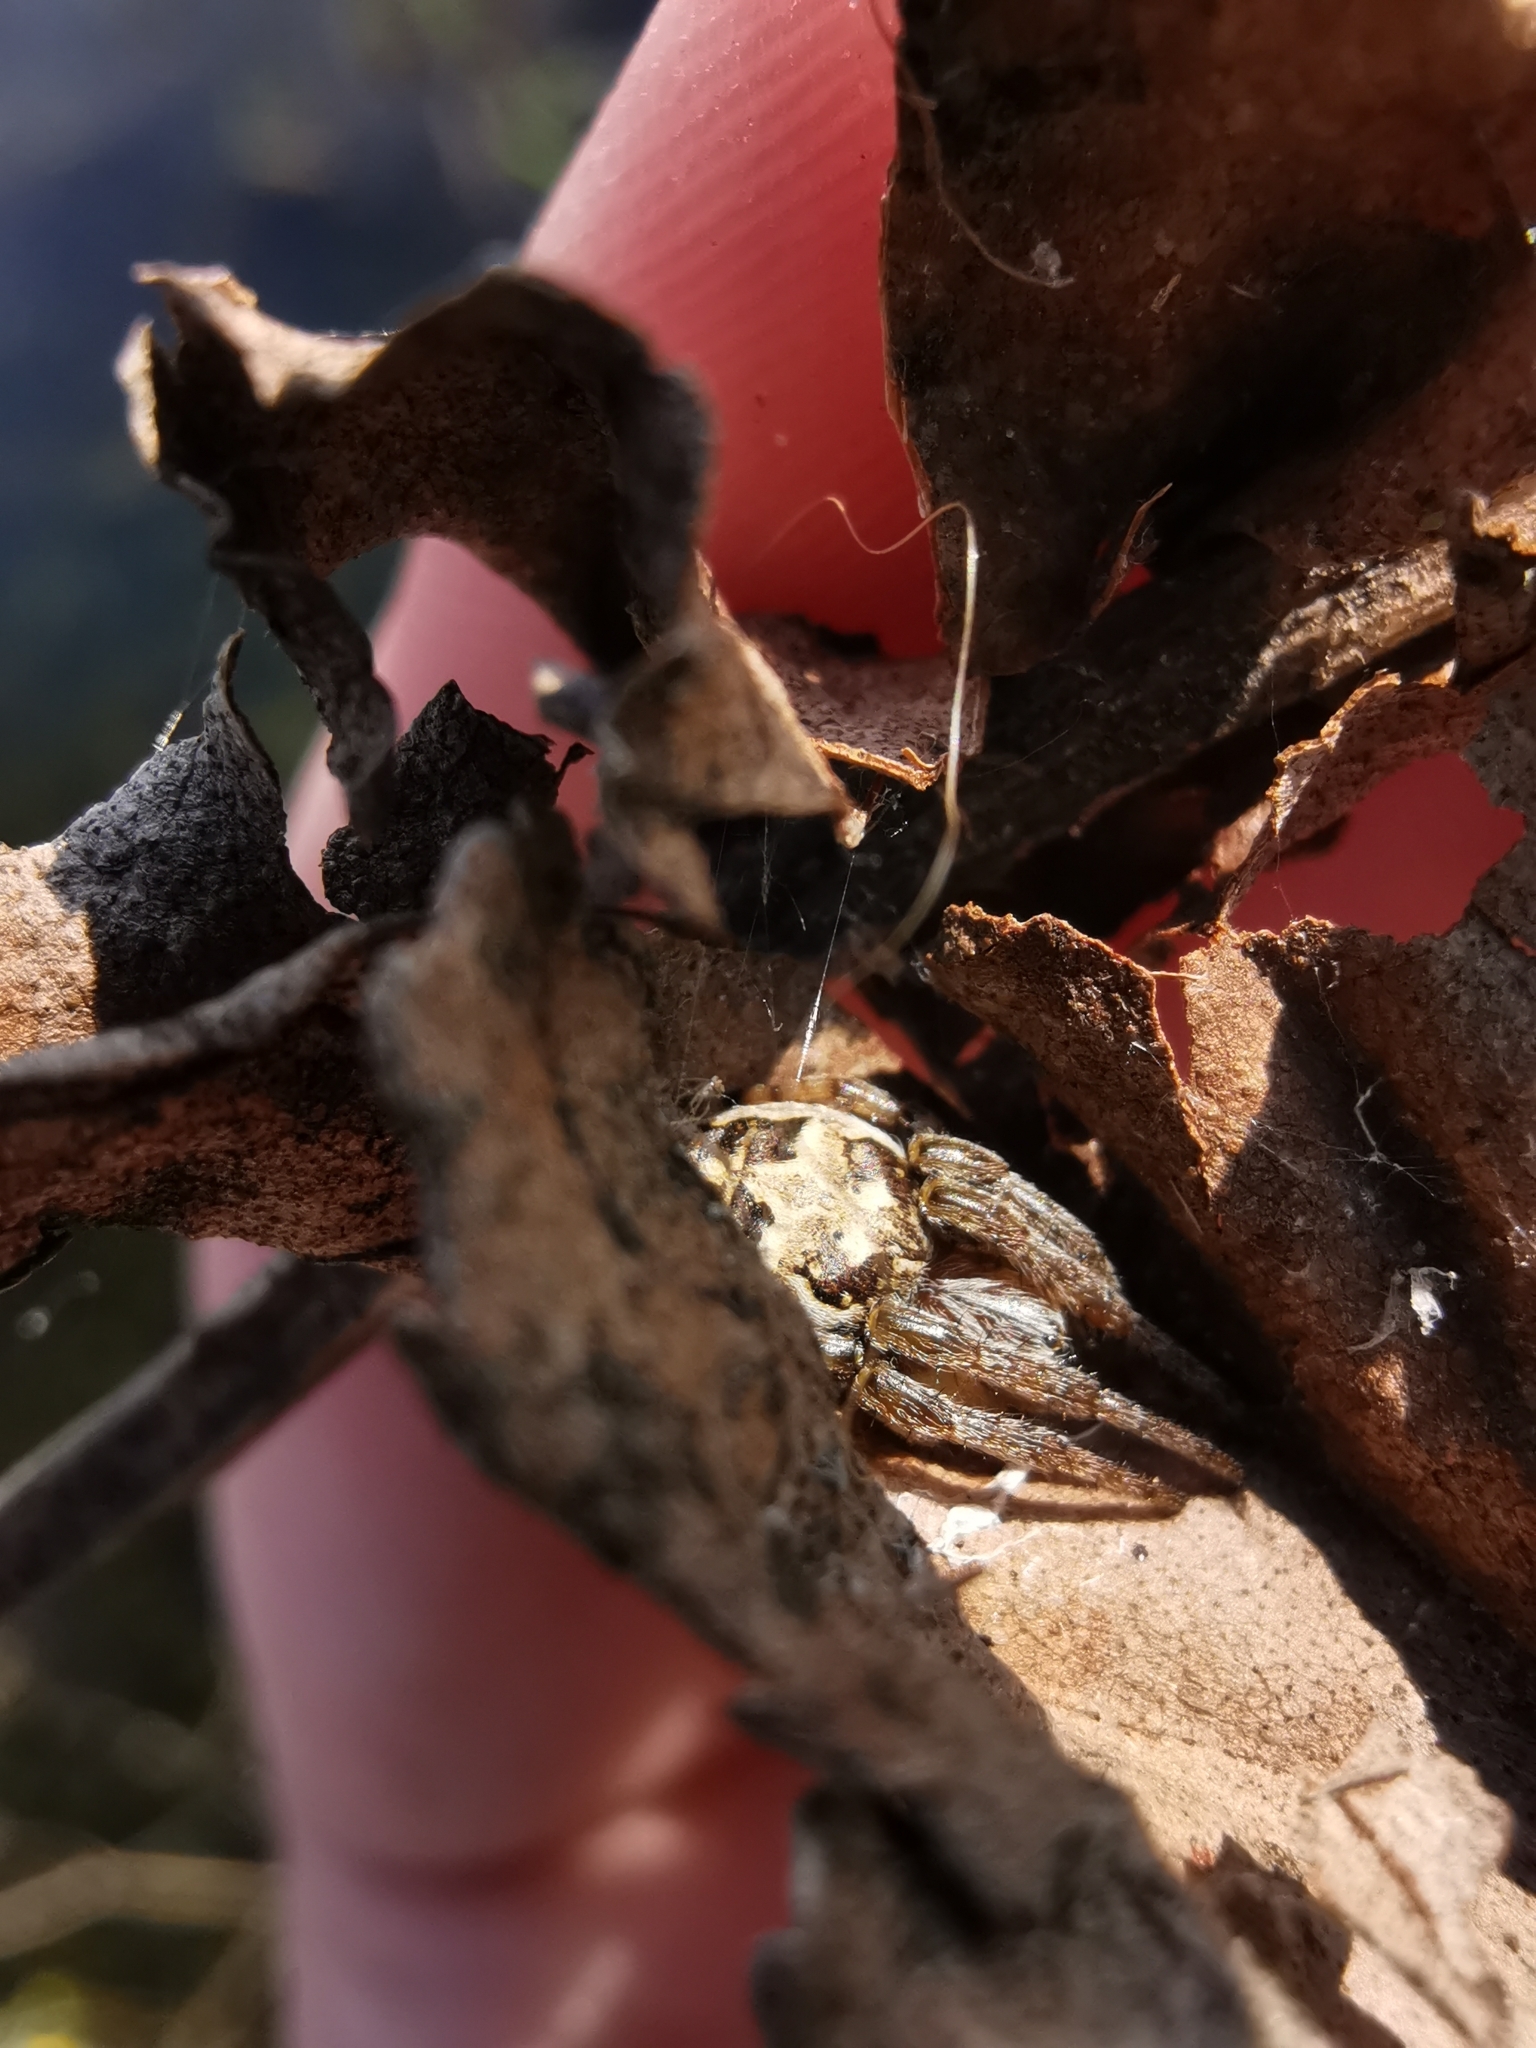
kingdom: Animalia
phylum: Arthropoda
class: Arachnida
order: Araneae
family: Araneidae
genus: Larinioides
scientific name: Larinioides cornutus
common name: Furrow orbweaver
